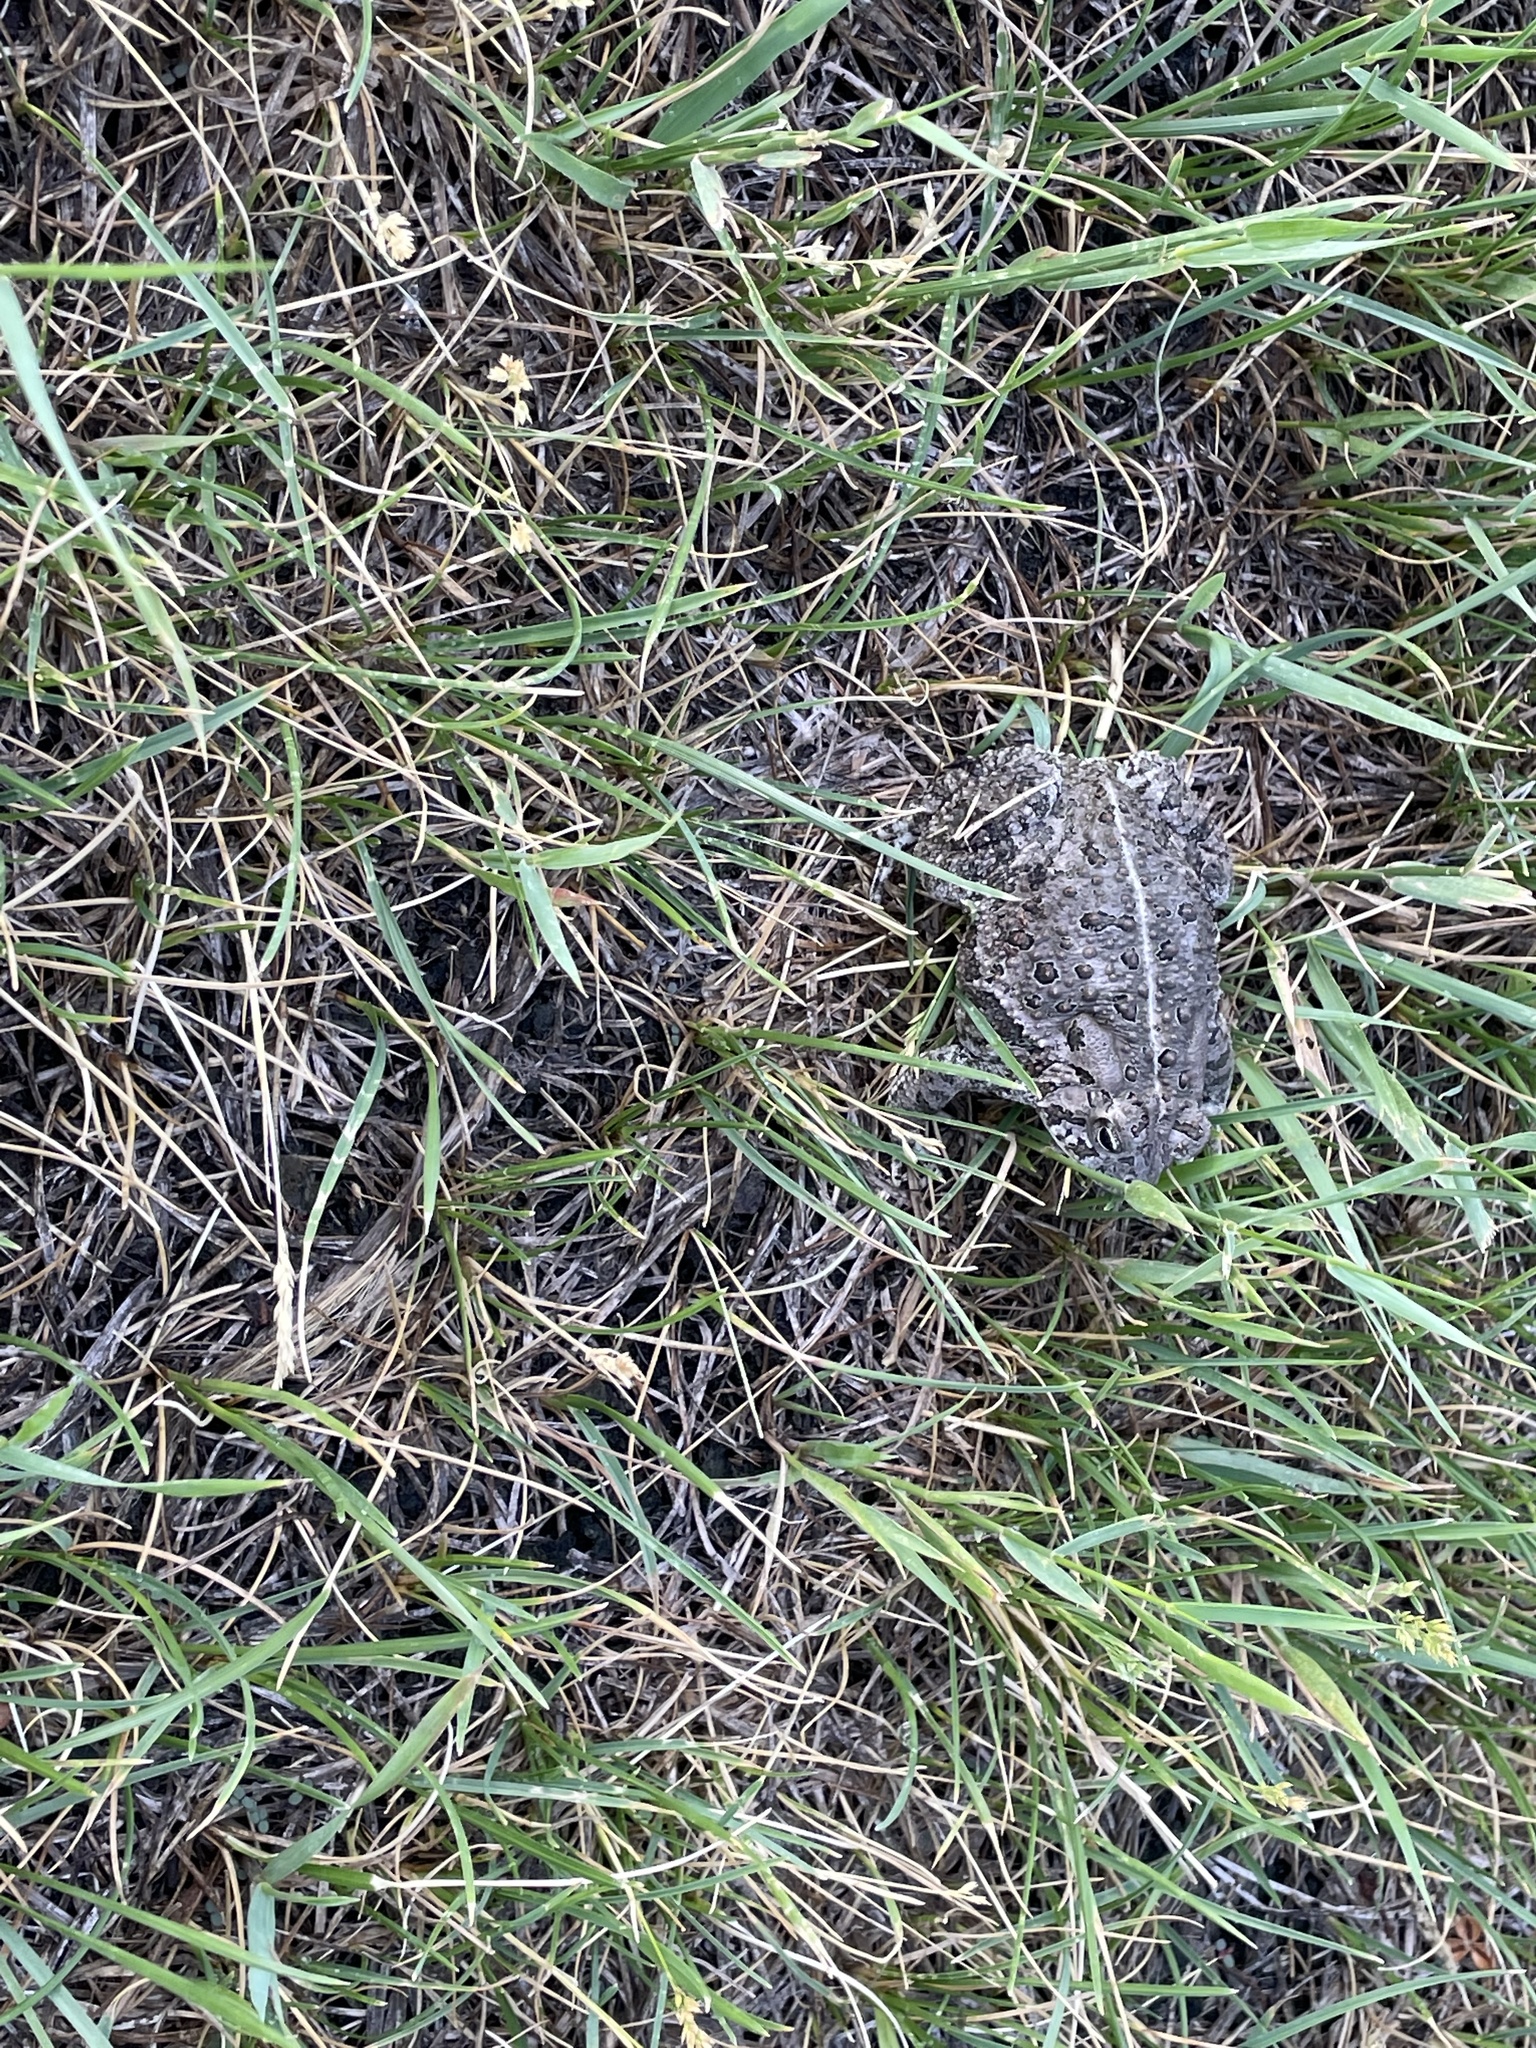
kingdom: Animalia
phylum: Chordata
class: Amphibia
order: Anura
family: Bufonidae
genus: Anaxyrus
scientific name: Anaxyrus woodhousii
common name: Woodhouse's toad
